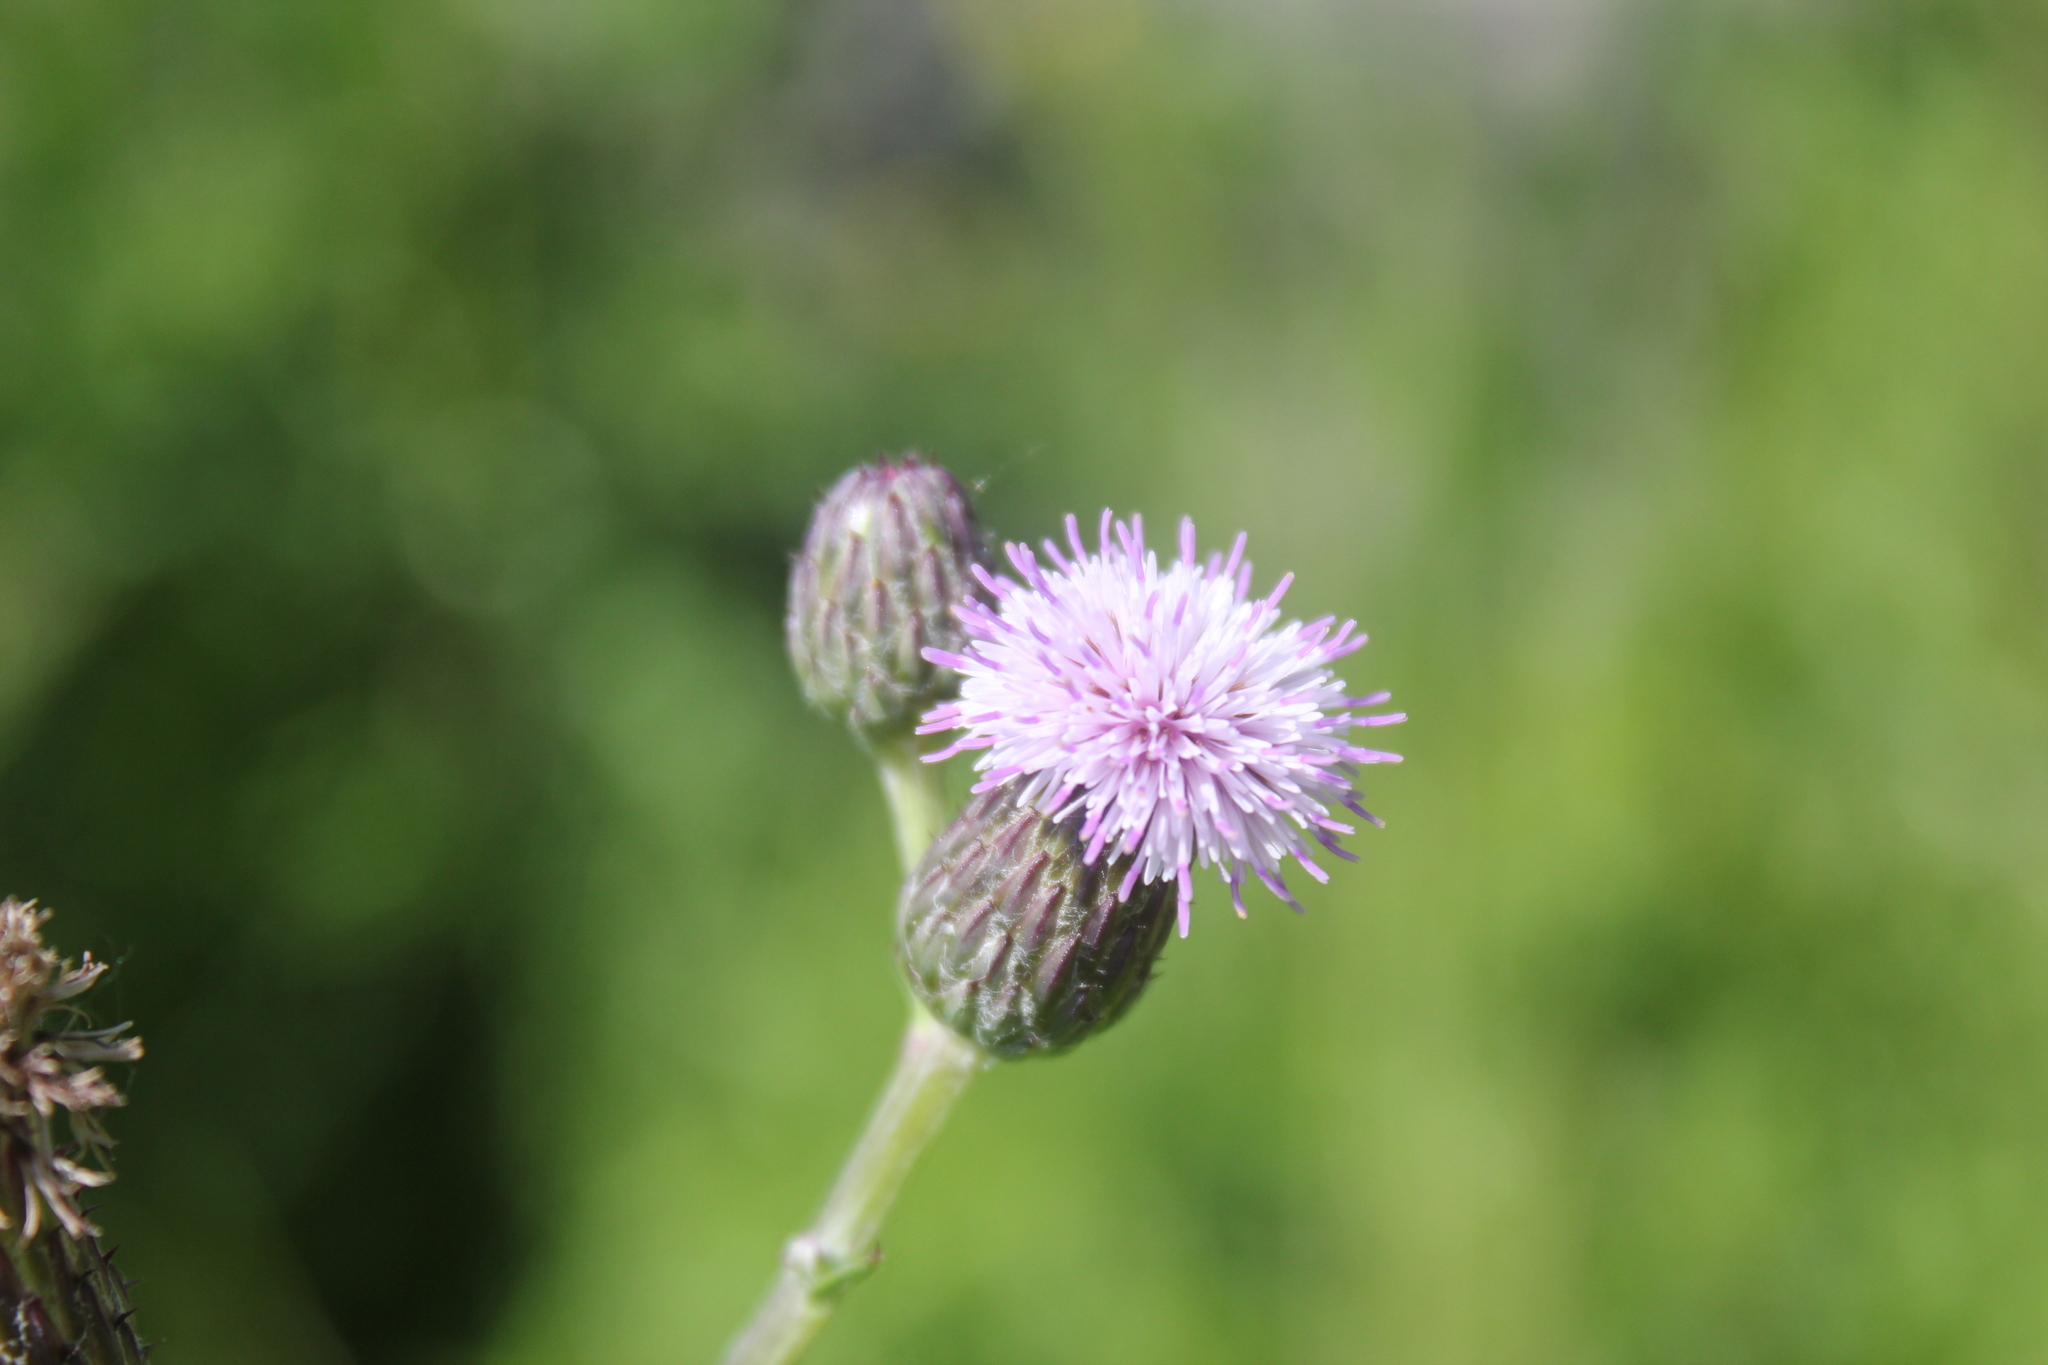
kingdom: Plantae
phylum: Tracheophyta
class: Magnoliopsida
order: Asterales
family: Asteraceae
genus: Cirsium
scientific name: Cirsium arvense
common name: Creeping thistle
